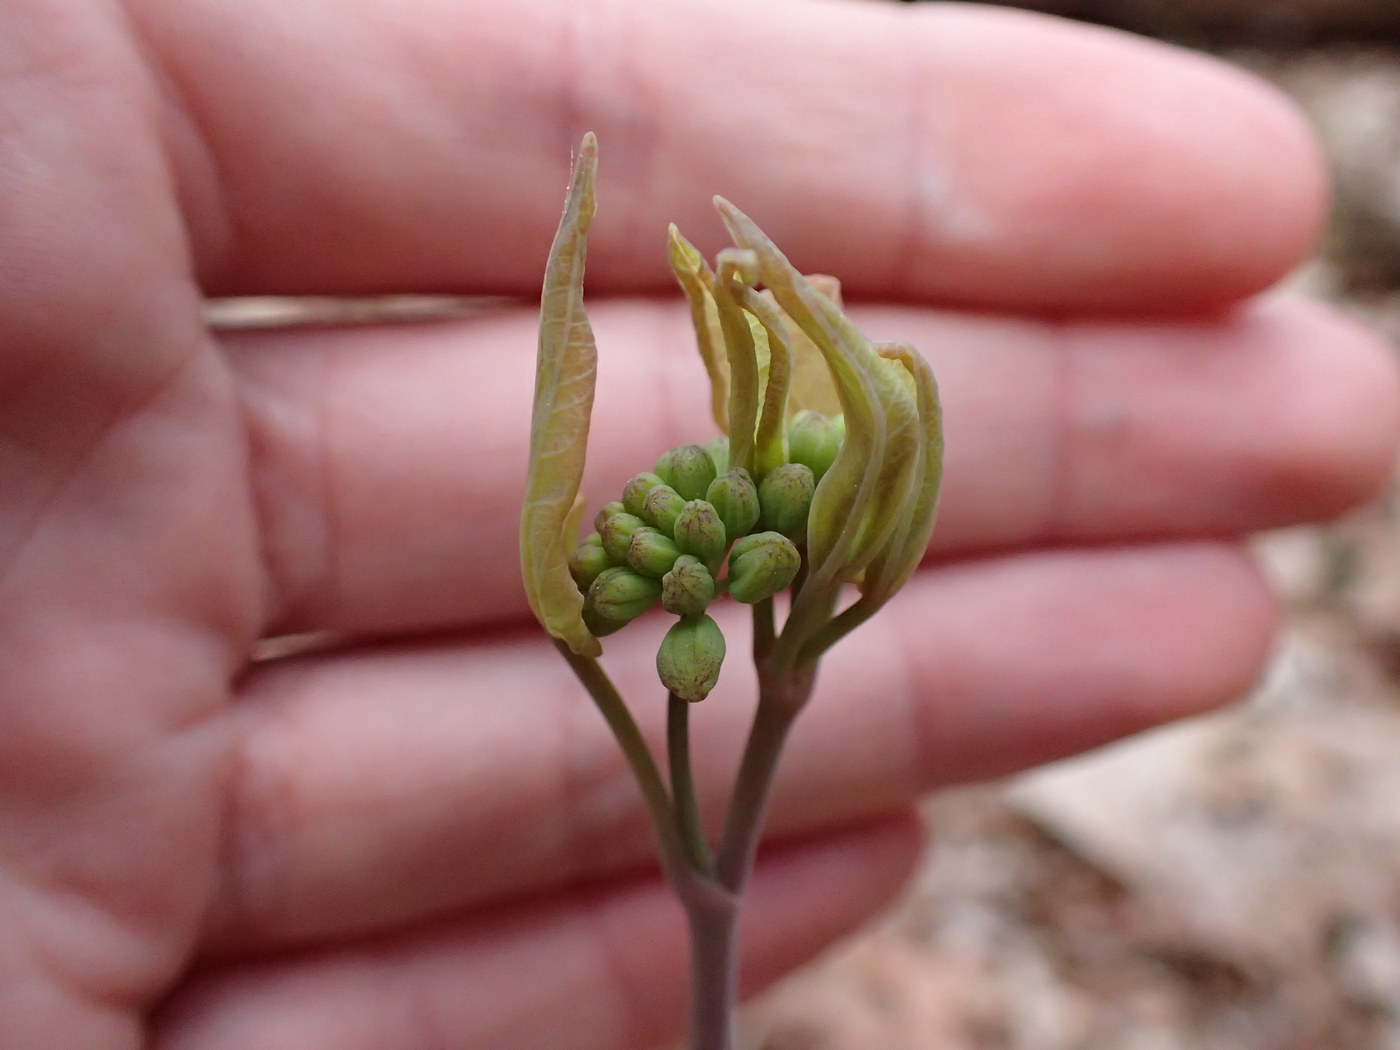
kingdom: Plantae
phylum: Tracheophyta
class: Liliopsida
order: Liliales
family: Smilacaceae
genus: Smilax
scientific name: Smilax biltmoreana
